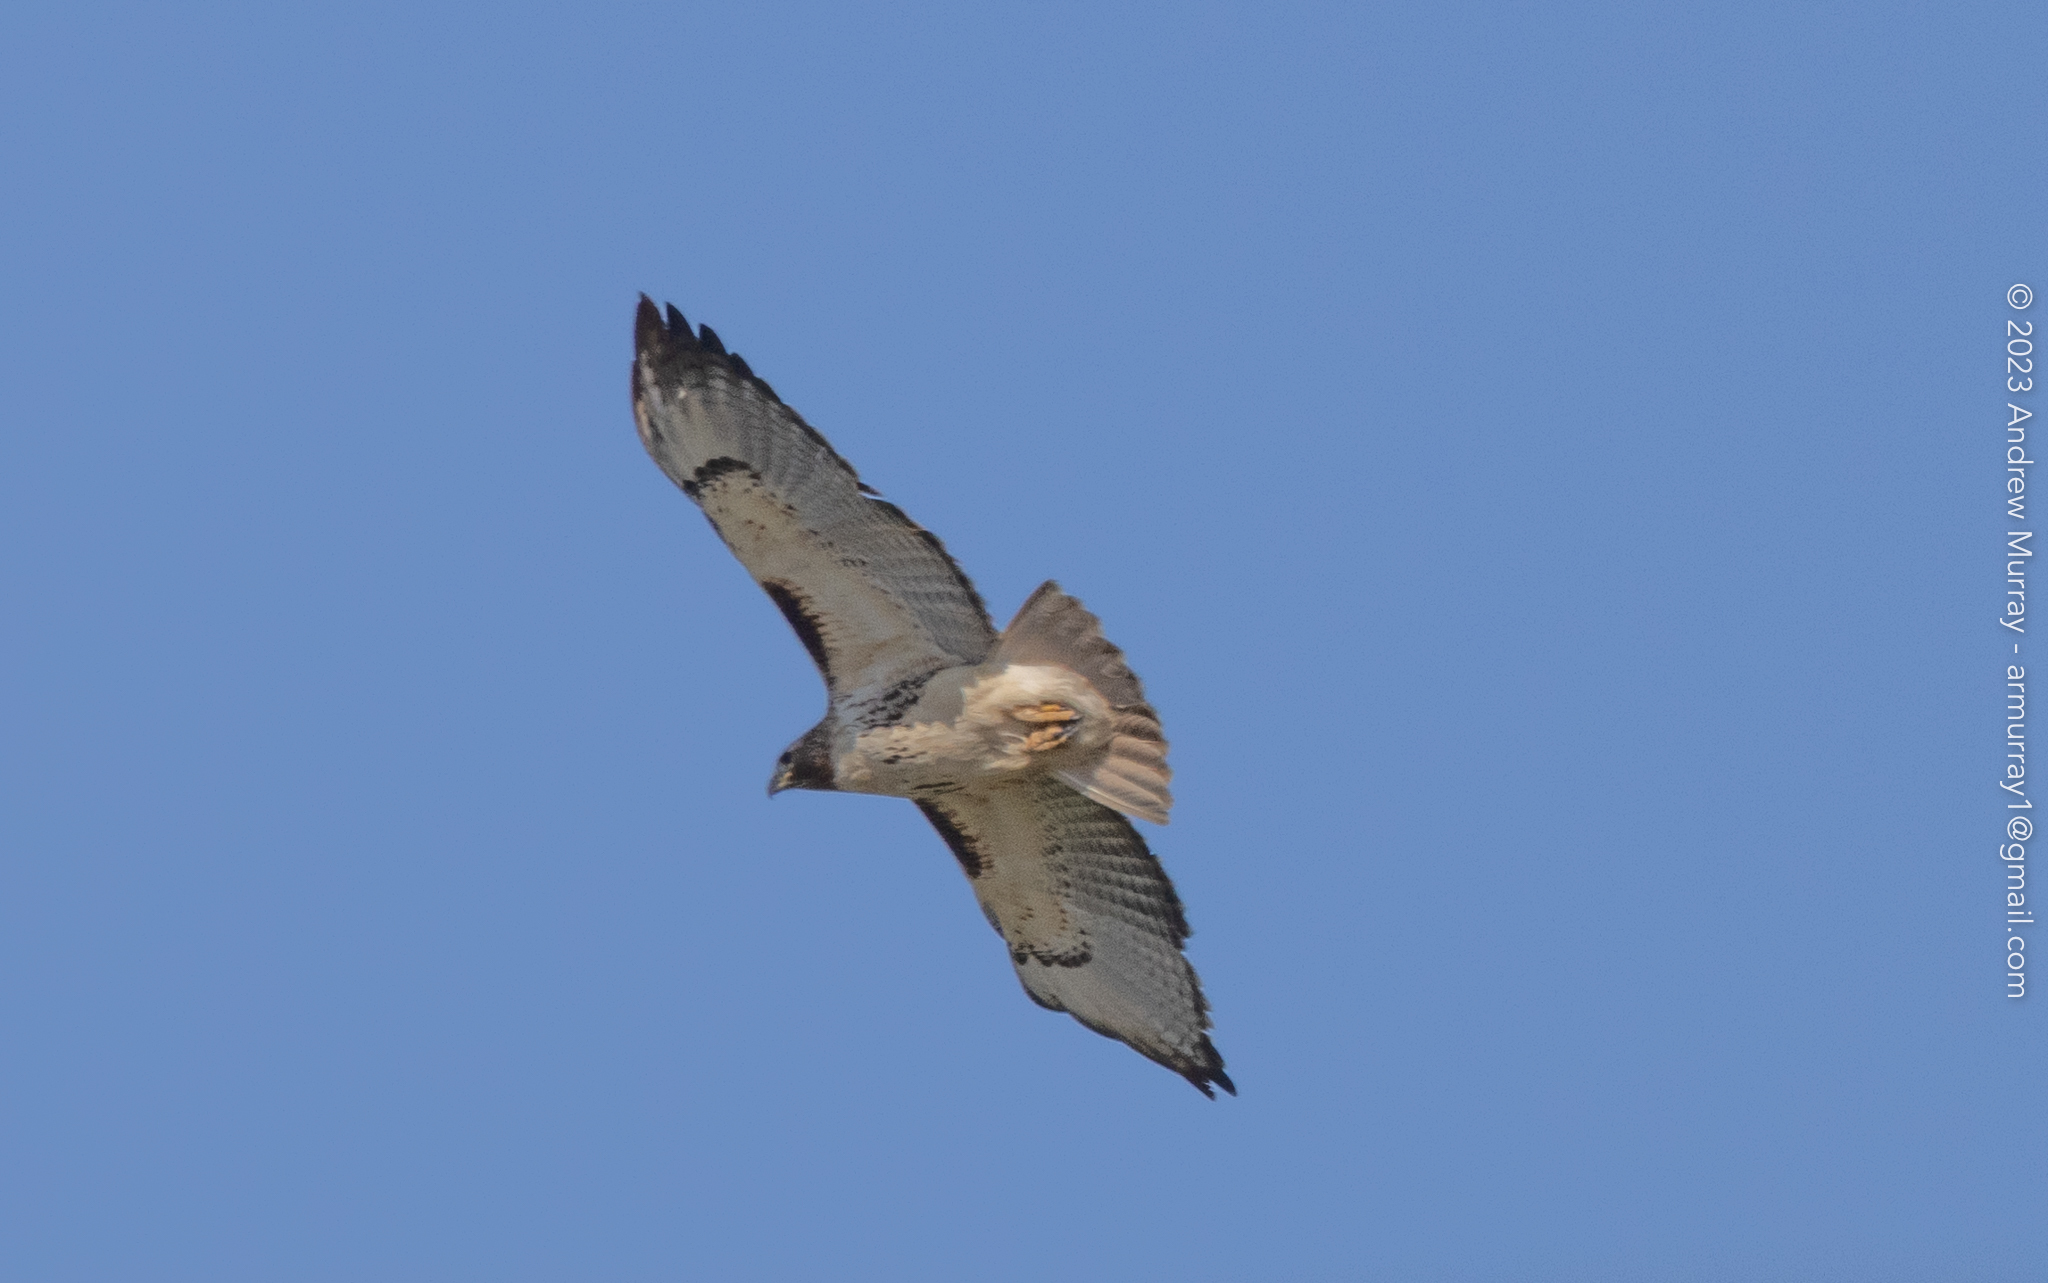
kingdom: Animalia
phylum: Chordata
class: Aves
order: Accipitriformes
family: Accipitridae
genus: Buteo
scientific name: Buteo jamaicensis
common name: Red-tailed hawk
